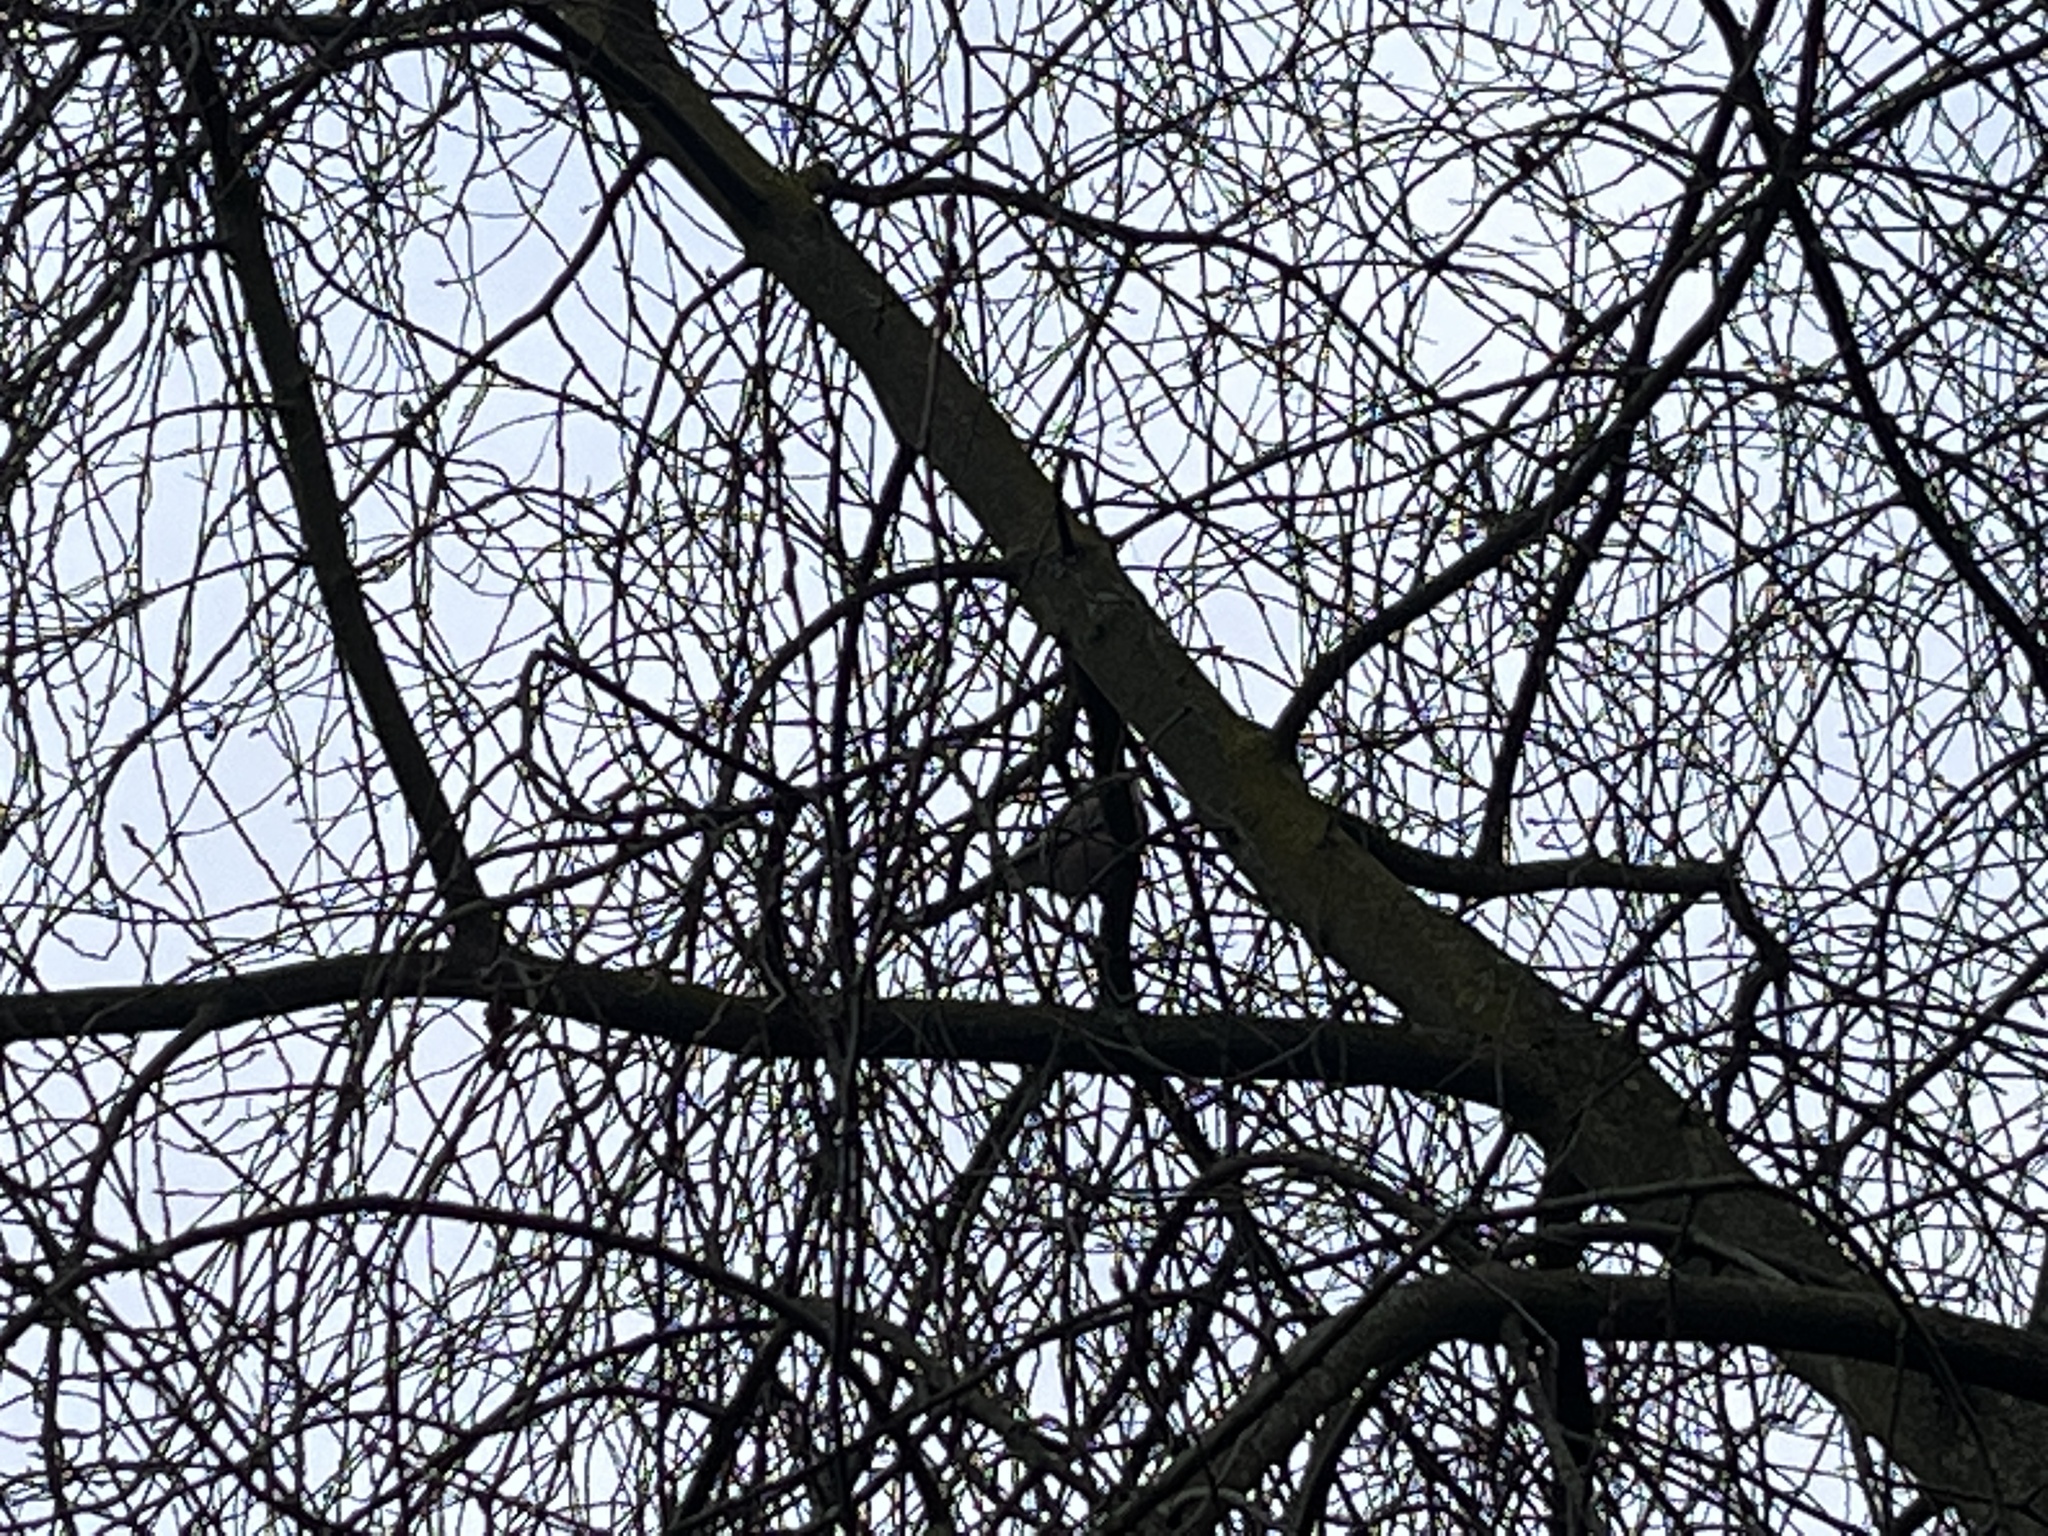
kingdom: Animalia
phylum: Chordata
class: Aves
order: Passeriformes
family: Corvidae
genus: Garrulus
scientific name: Garrulus glandarius
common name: Eurasian jay
